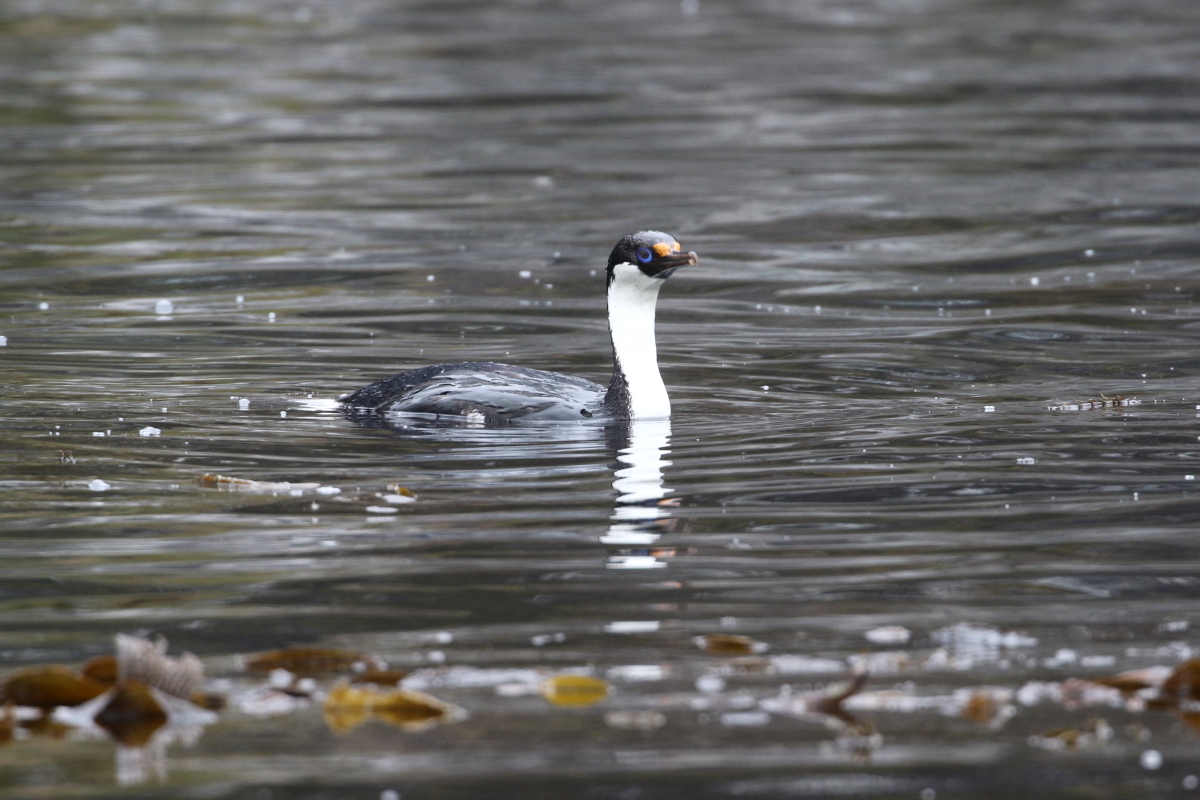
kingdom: Animalia
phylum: Chordata
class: Aves
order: Suliformes
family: Phalacrocoracidae
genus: Leucocarbo
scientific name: Leucocarbo atriceps
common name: Imperial shag
